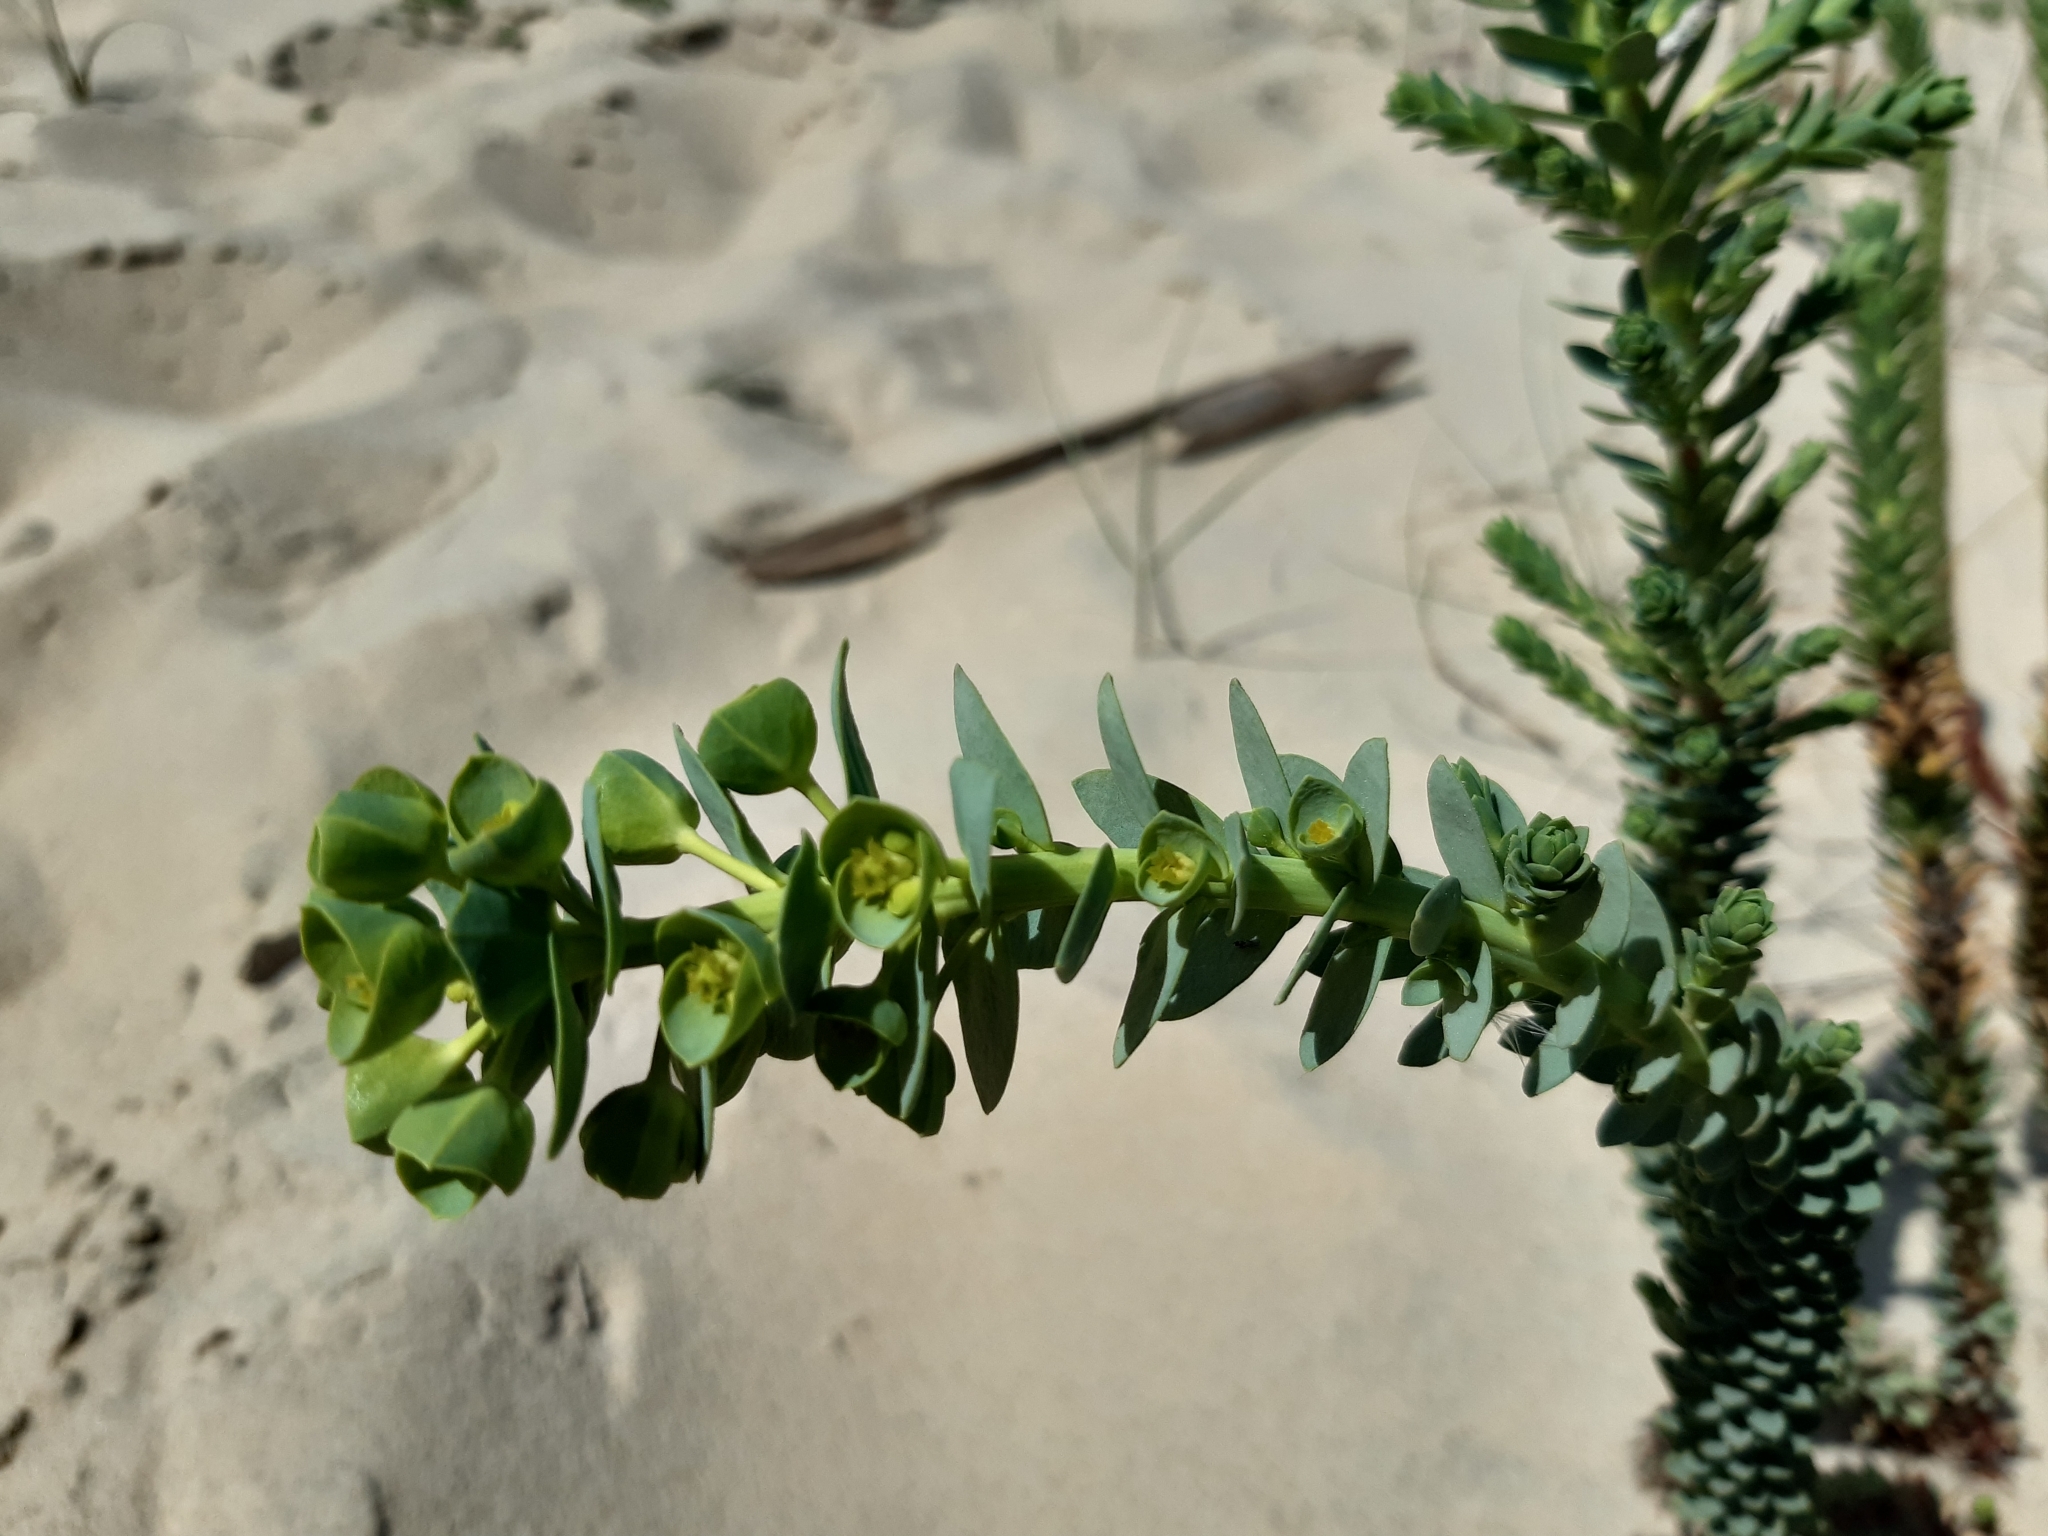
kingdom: Plantae
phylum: Tracheophyta
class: Magnoliopsida
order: Malpighiales
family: Euphorbiaceae
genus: Euphorbia
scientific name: Euphorbia paralias
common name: Sea spurge
